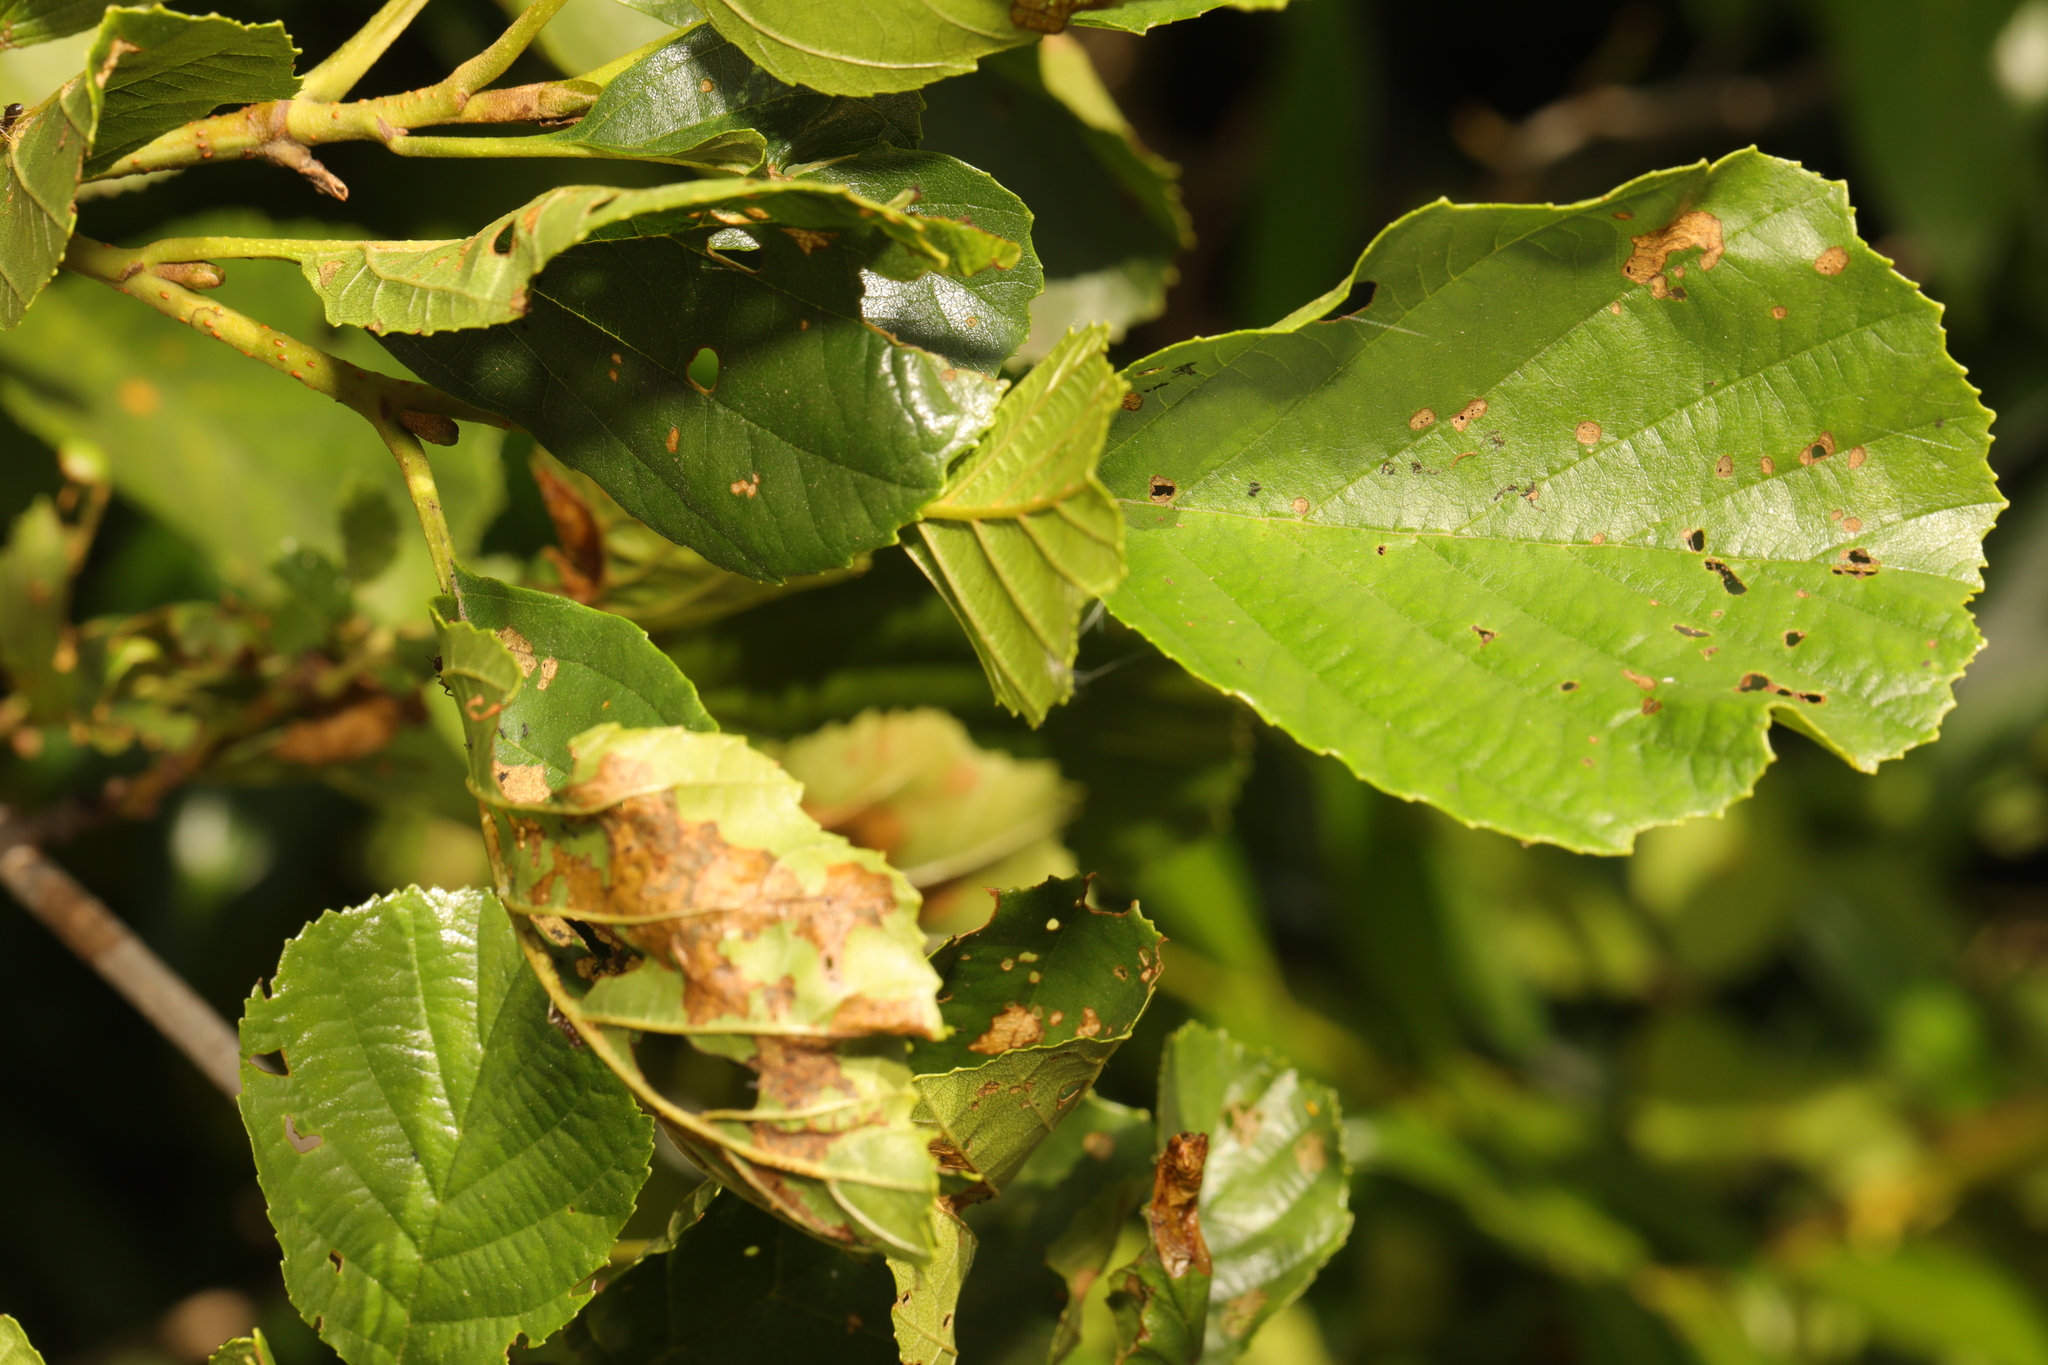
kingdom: Plantae
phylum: Tracheophyta
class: Magnoliopsida
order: Fagales
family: Betulaceae
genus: Alnus
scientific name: Alnus glutinosa
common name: Black alder
